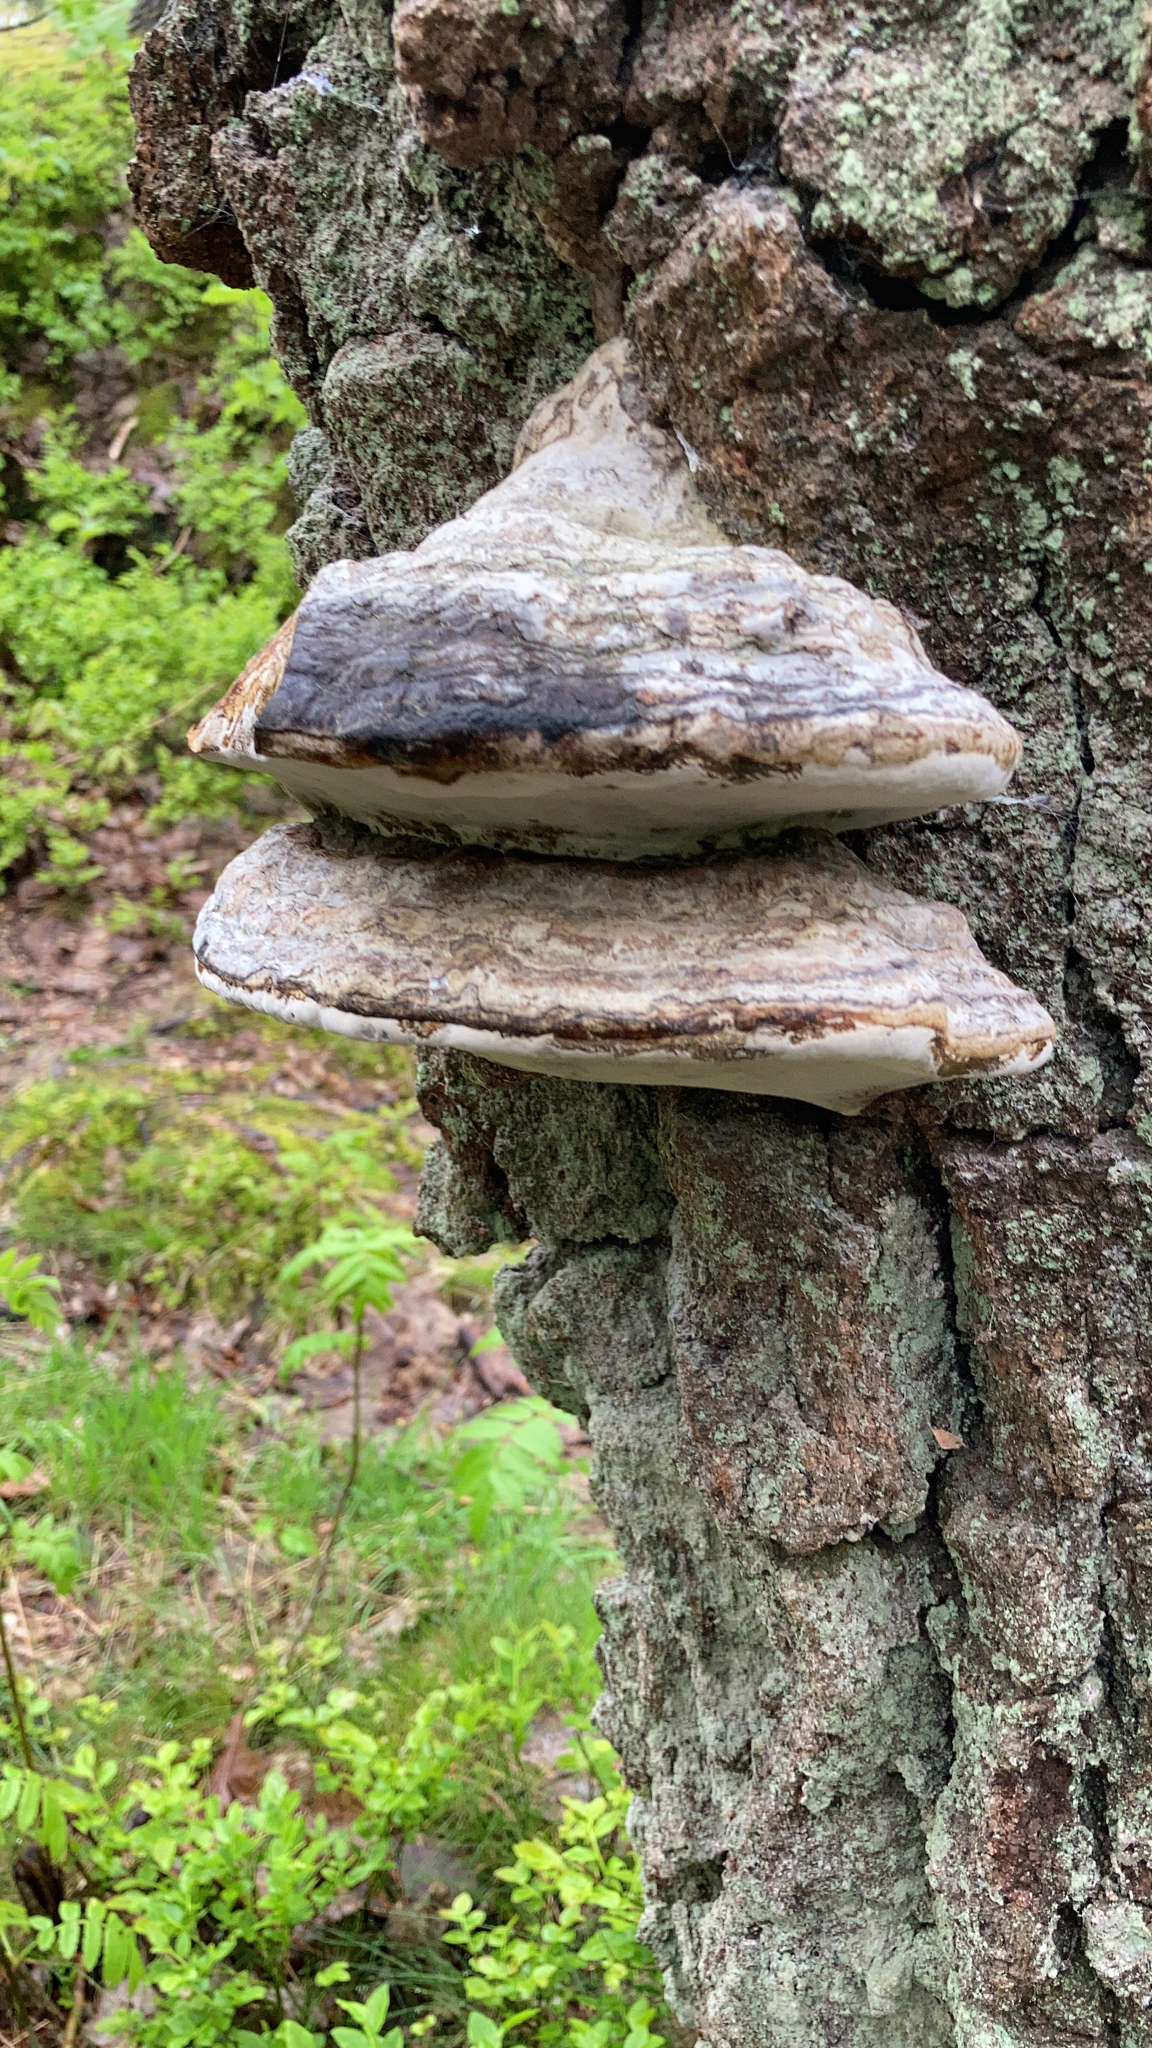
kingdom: Fungi
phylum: Basidiomycota
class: Agaricomycetes
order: Polyporales
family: Polyporaceae
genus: Fomes
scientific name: Fomes fomentarius
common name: Hoof fungus
